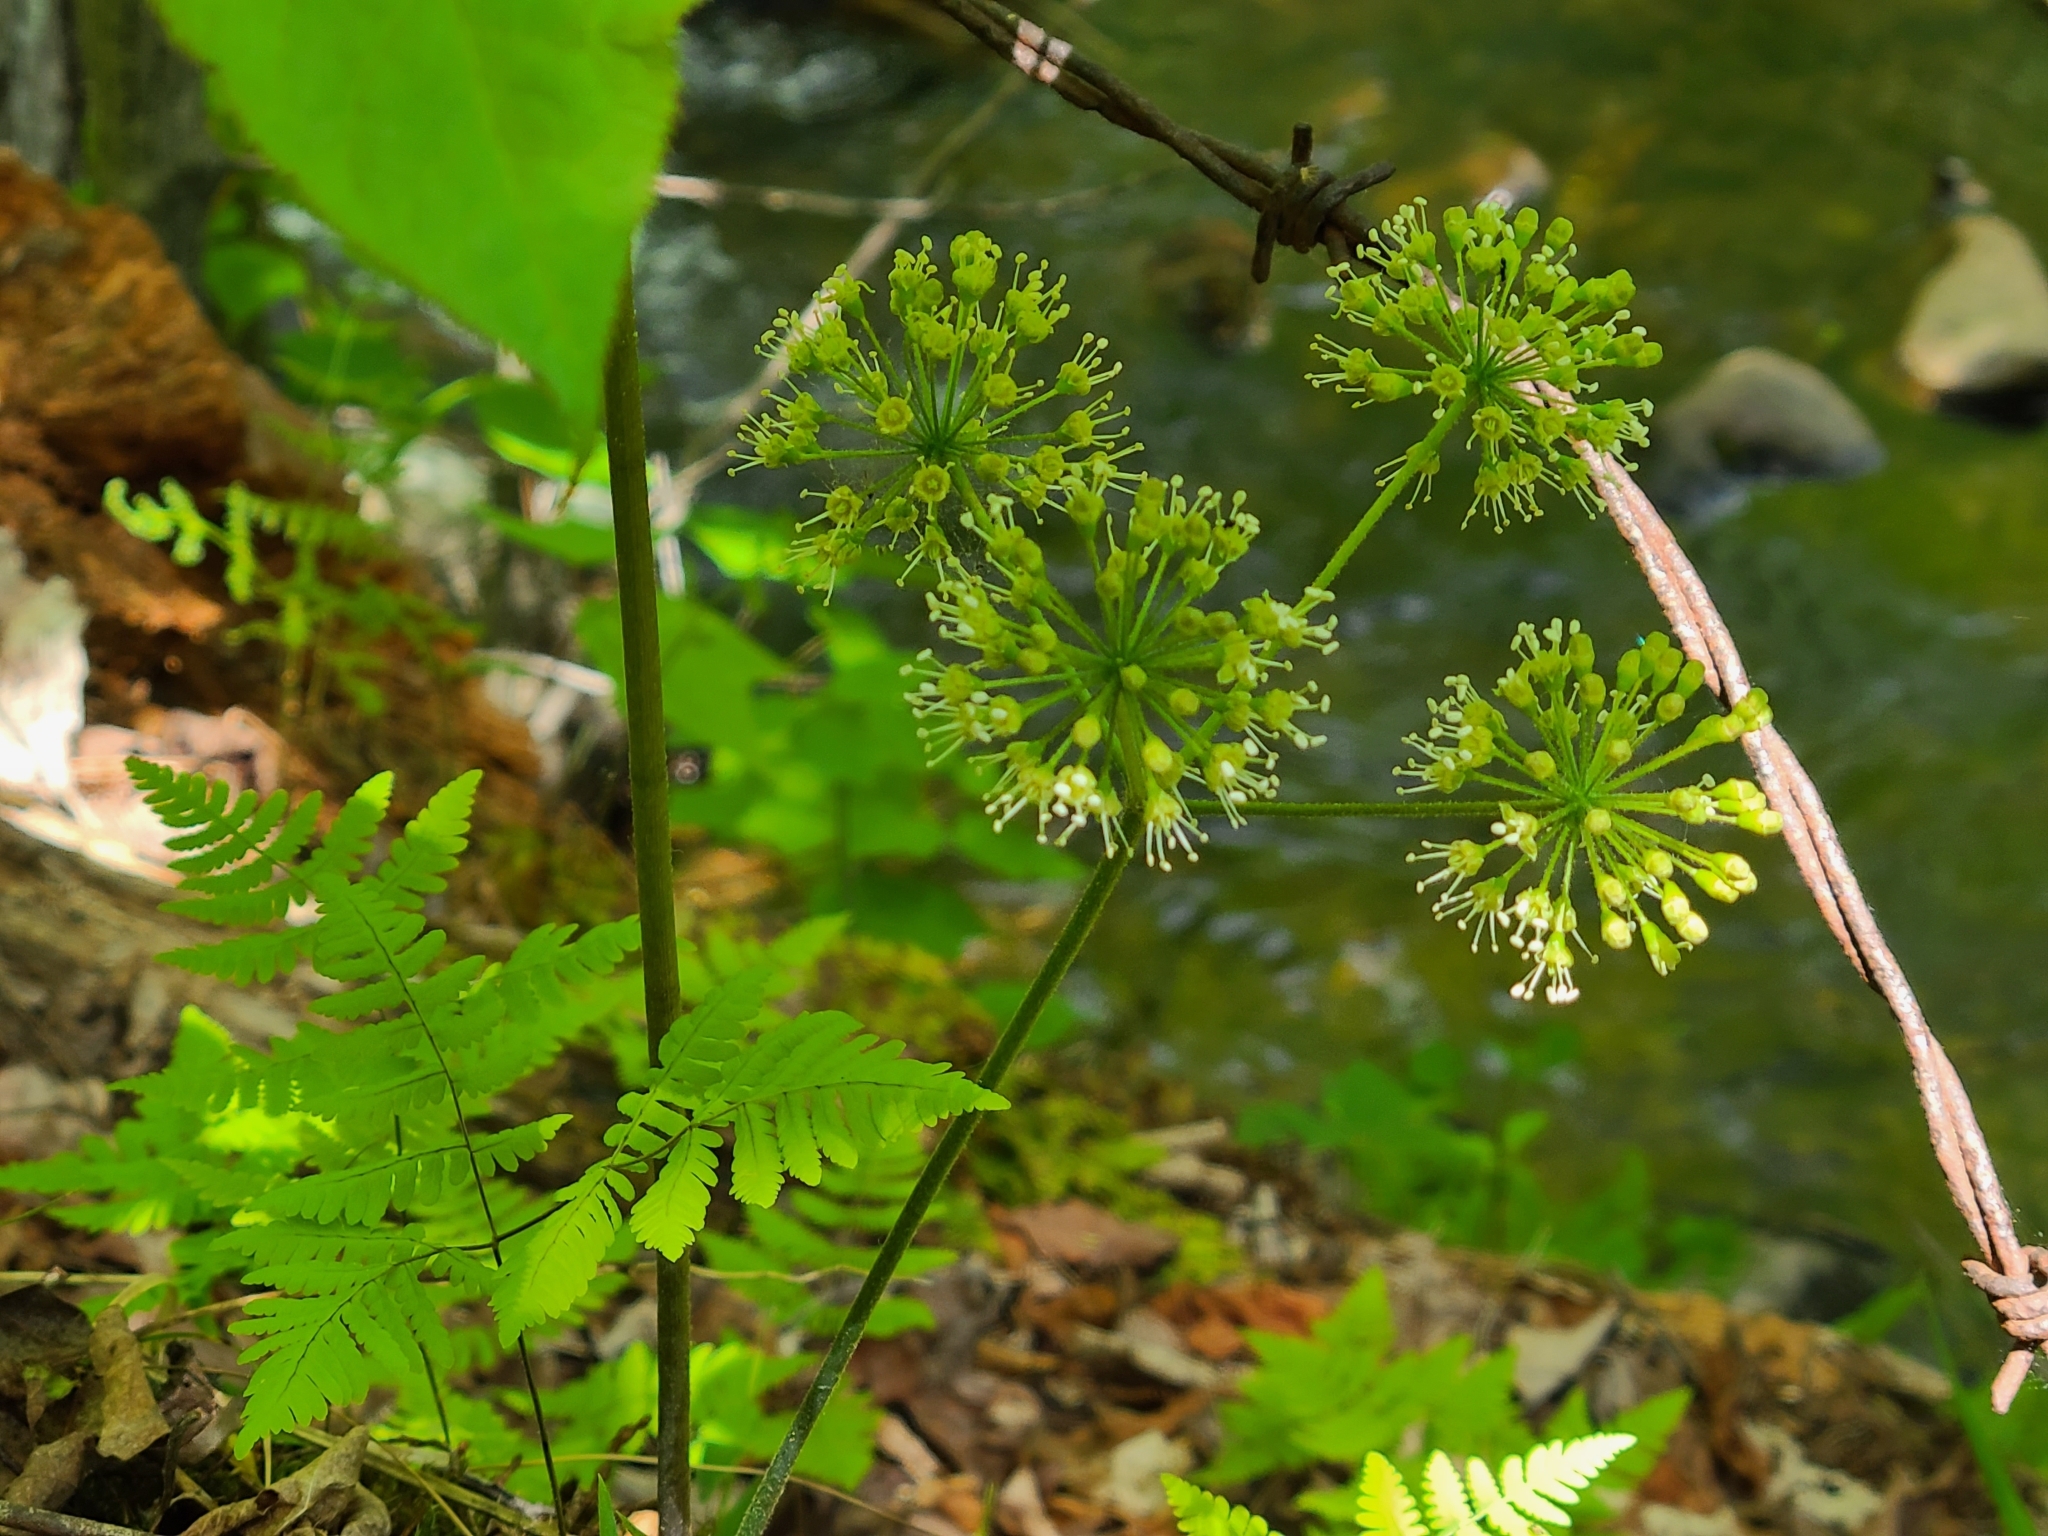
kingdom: Plantae
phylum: Tracheophyta
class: Magnoliopsida
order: Apiales
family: Araliaceae
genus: Aralia
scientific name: Aralia nudicaulis
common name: Wild sarsaparilla
